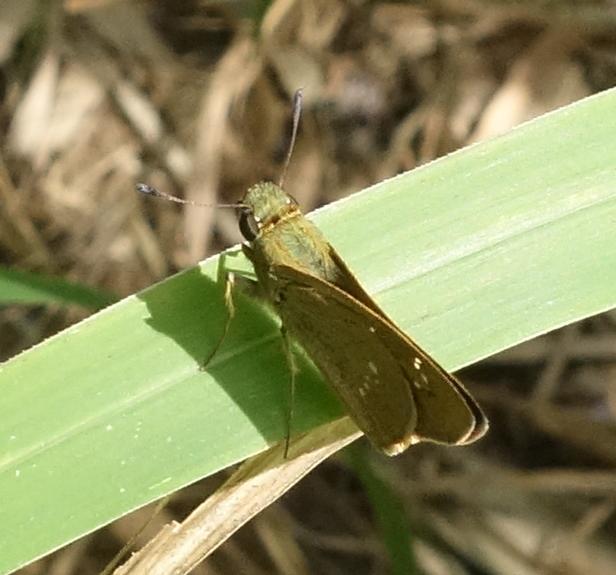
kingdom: Animalia
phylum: Arthropoda
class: Insecta
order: Lepidoptera
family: Hesperiidae
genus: Borbo
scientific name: Borbo cinnara
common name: Formosan swift
